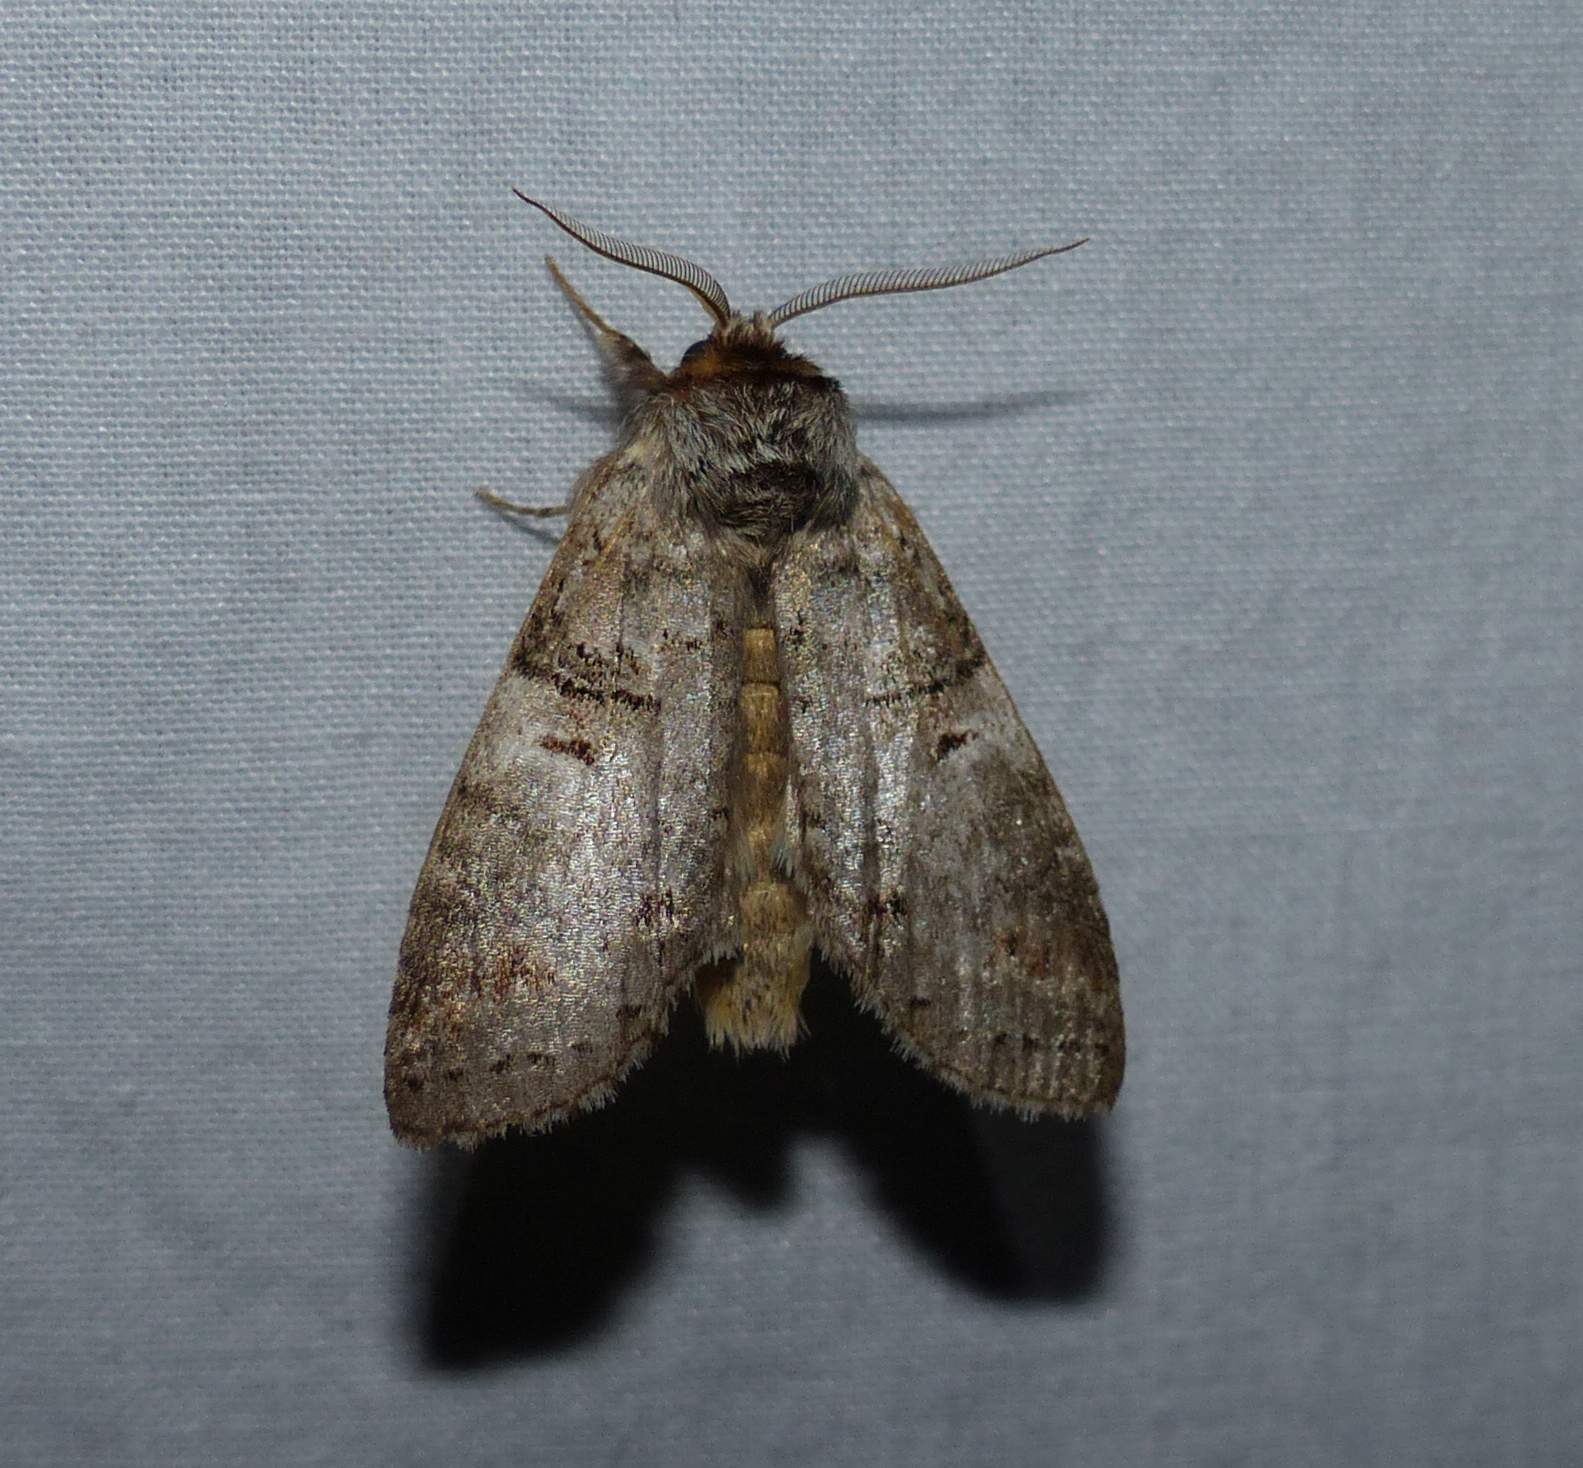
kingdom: Animalia
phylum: Arthropoda
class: Insecta
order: Lepidoptera
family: Notodontidae
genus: Ellida
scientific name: Ellida caniplaga
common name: Linden prominent
